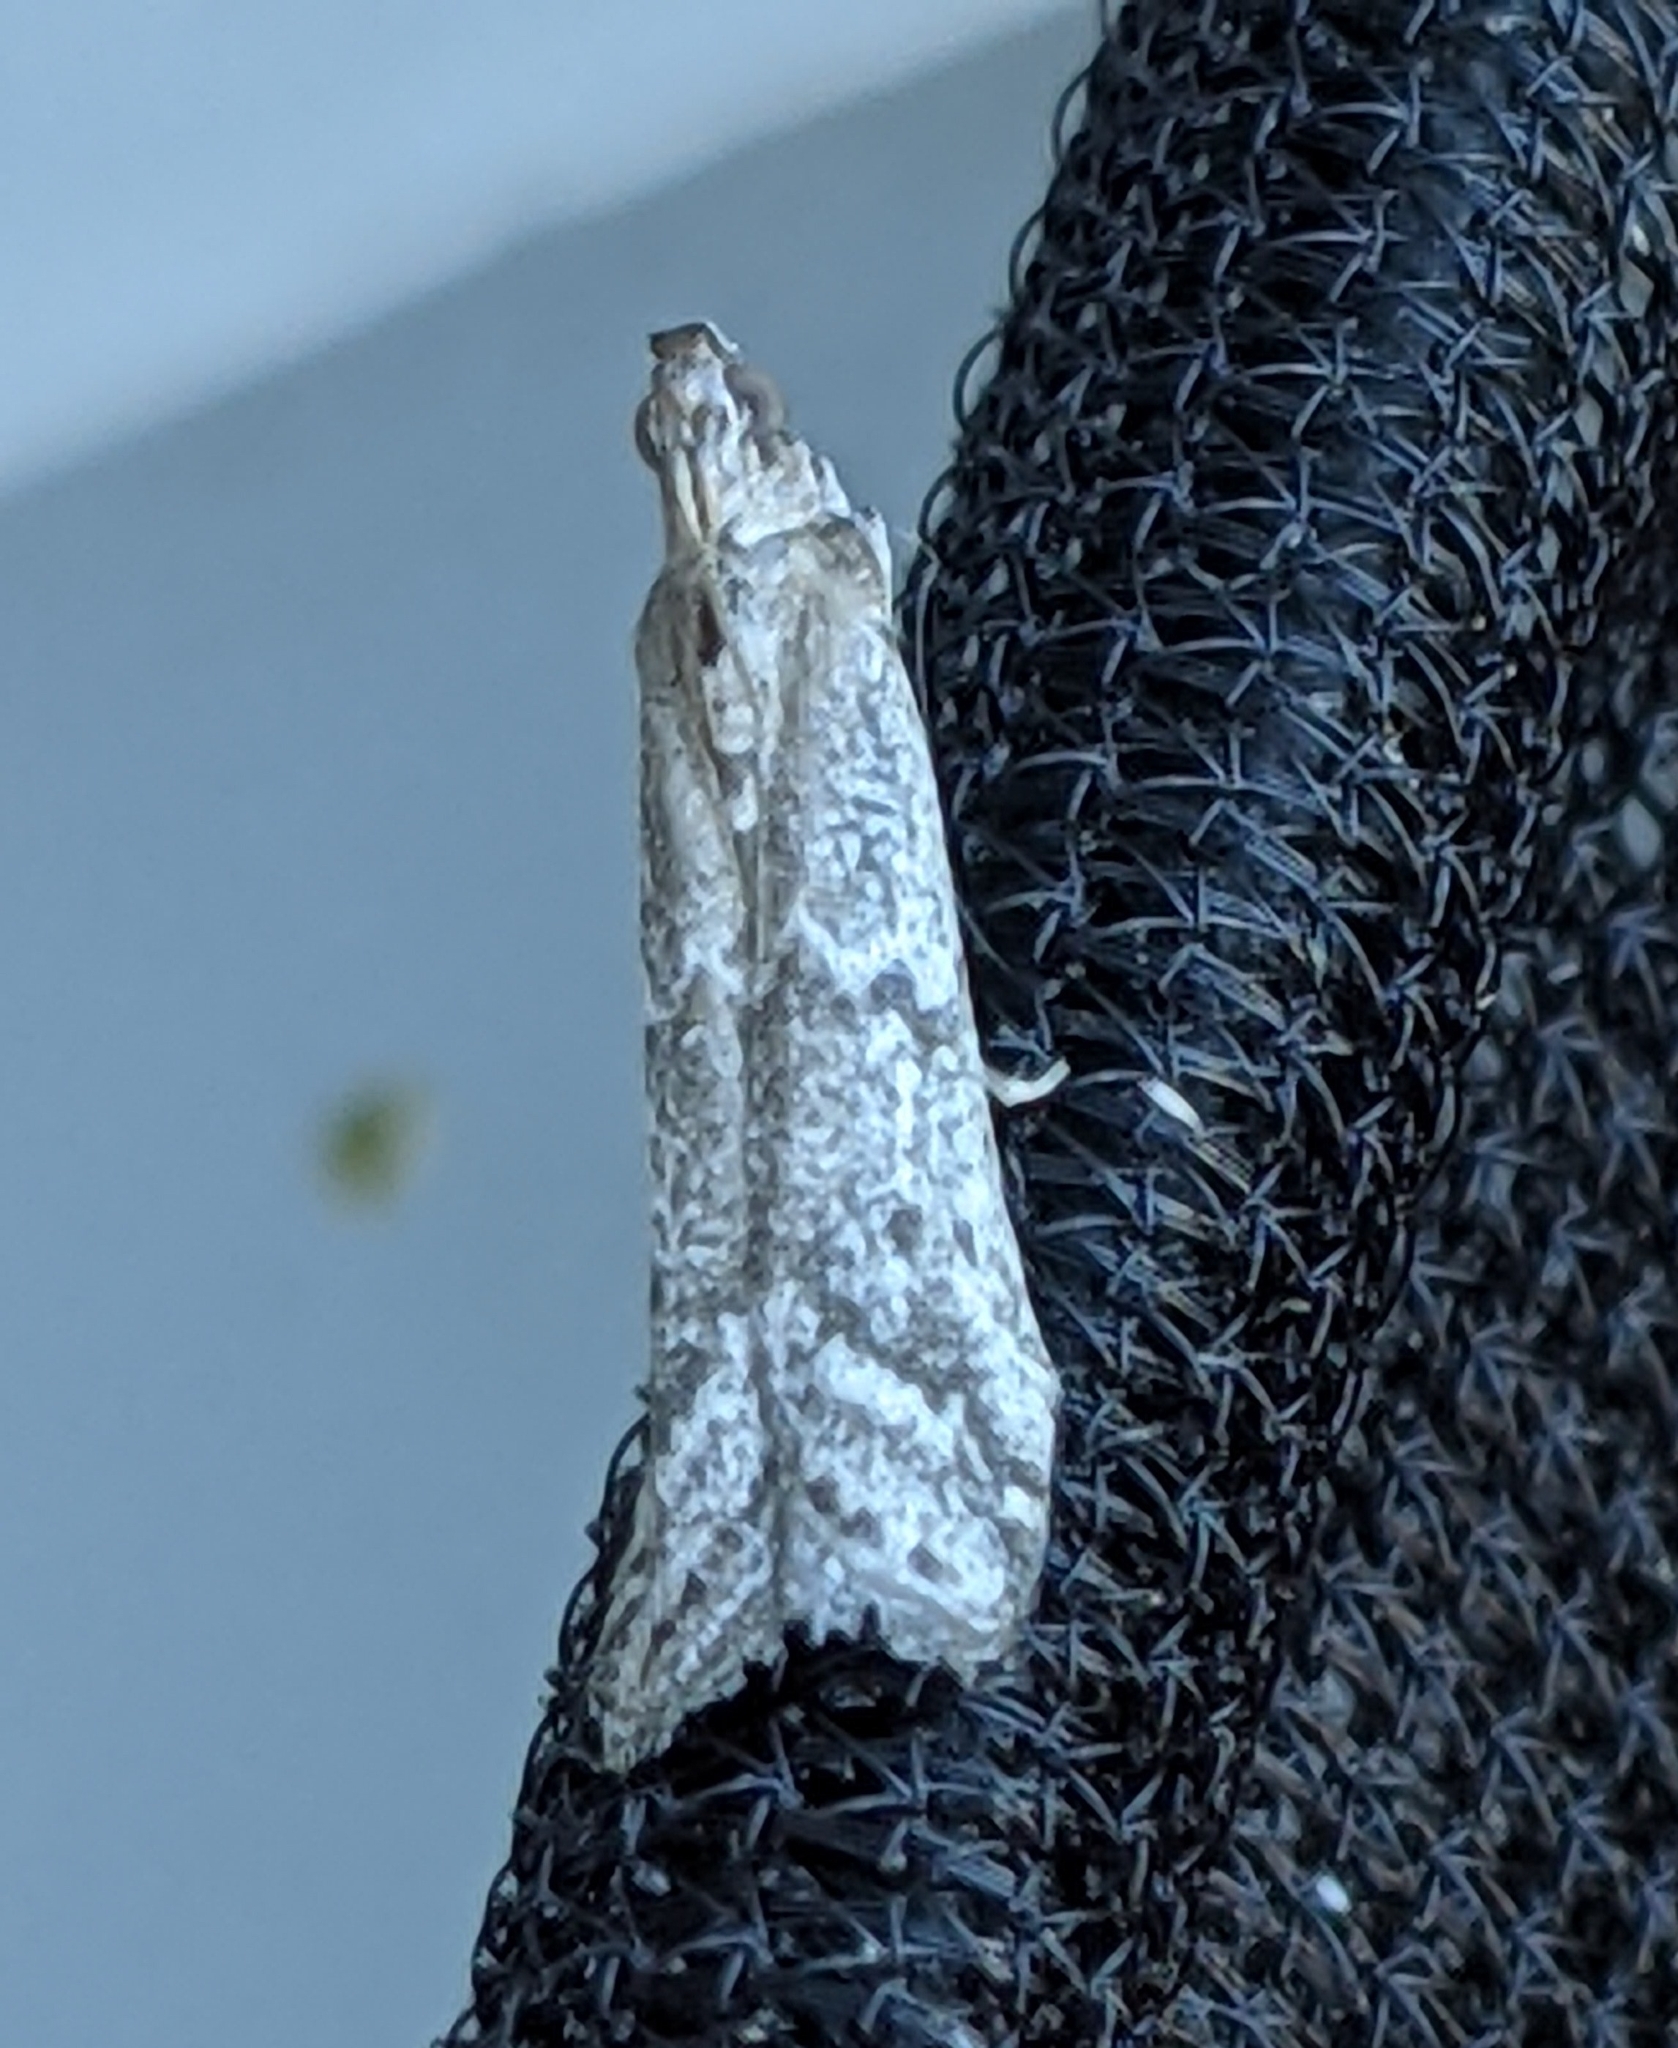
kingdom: Animalia
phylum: Arthropoda
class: Insecta
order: Lepidoptera
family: Pyralidae
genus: Ephestiodes
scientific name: Ephestiodes gilvescentella
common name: Moth
